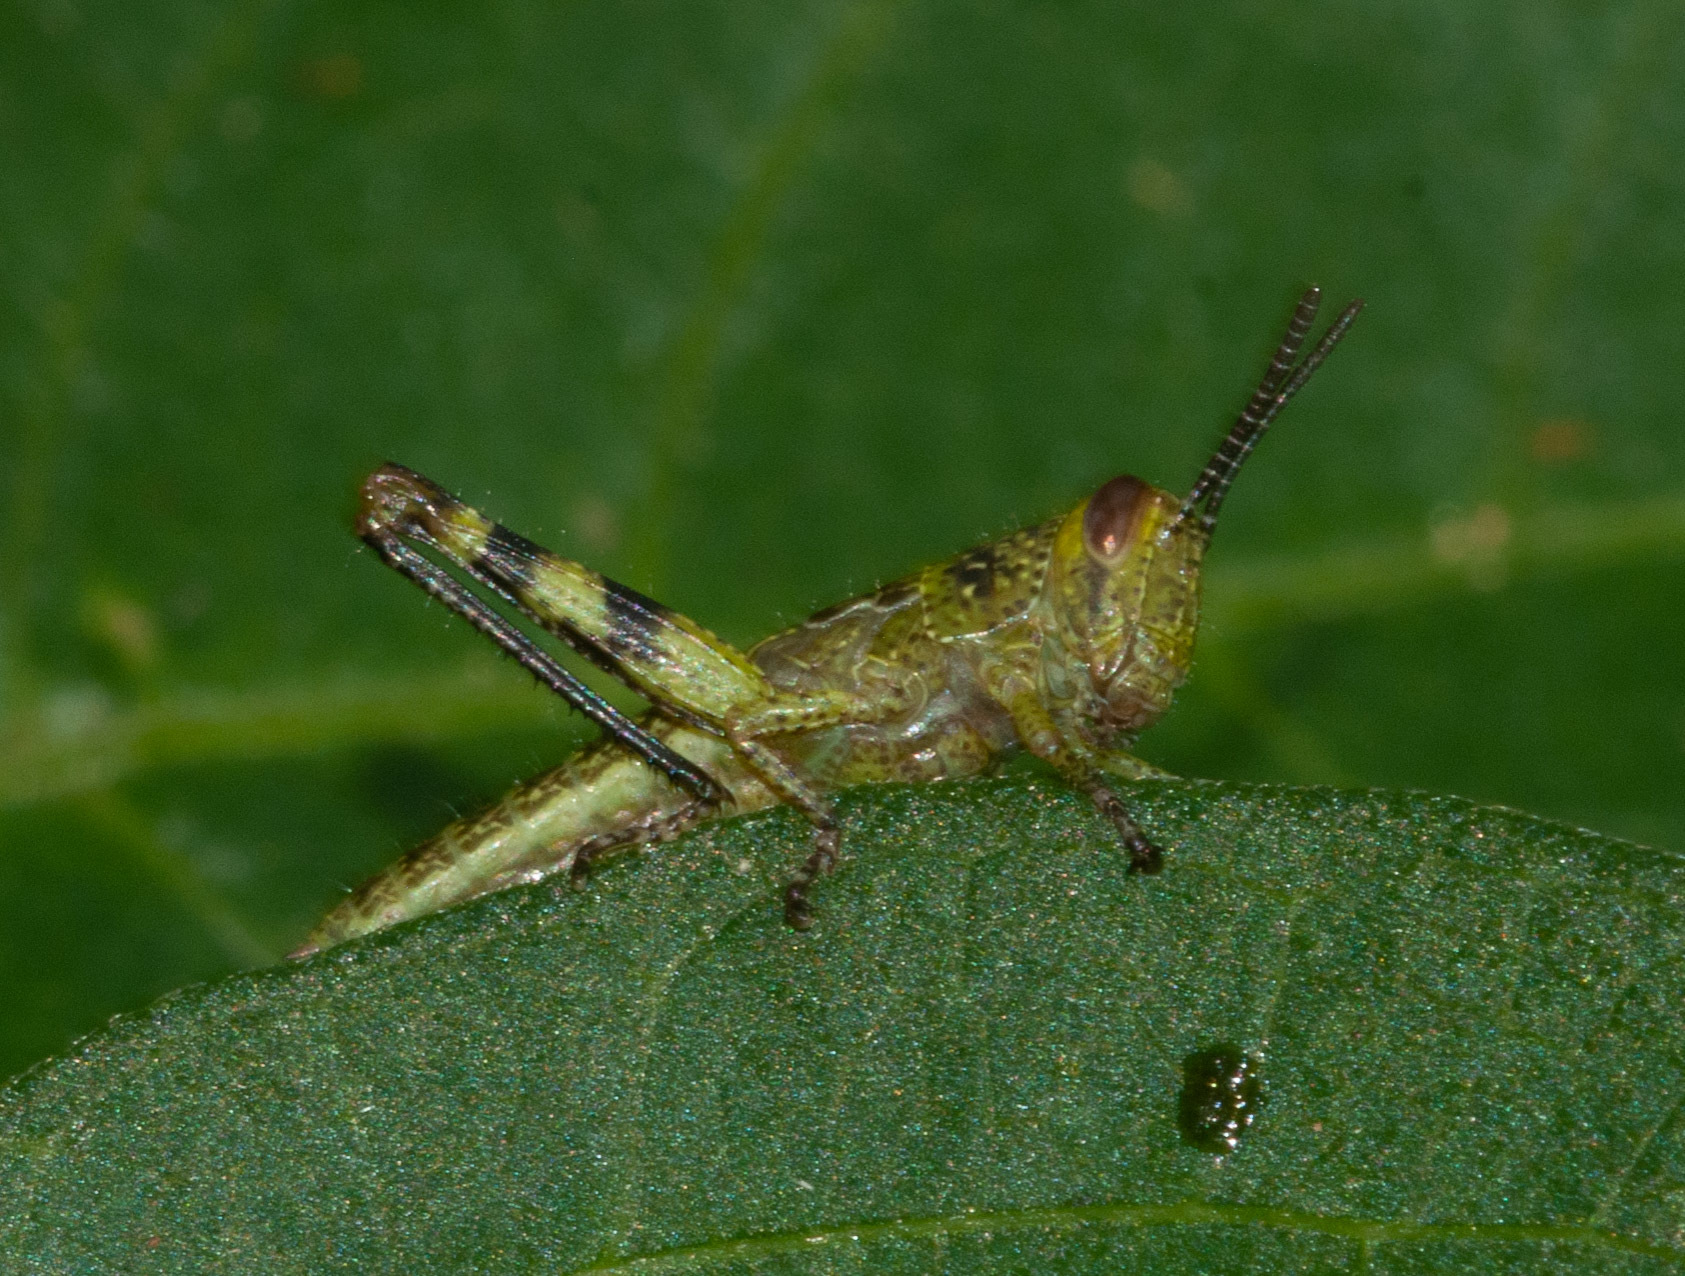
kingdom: Animalia
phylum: Arthropoda
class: Insecta
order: Orthoptera
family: Acrididae
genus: Valanga
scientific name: Valanga irregularis
